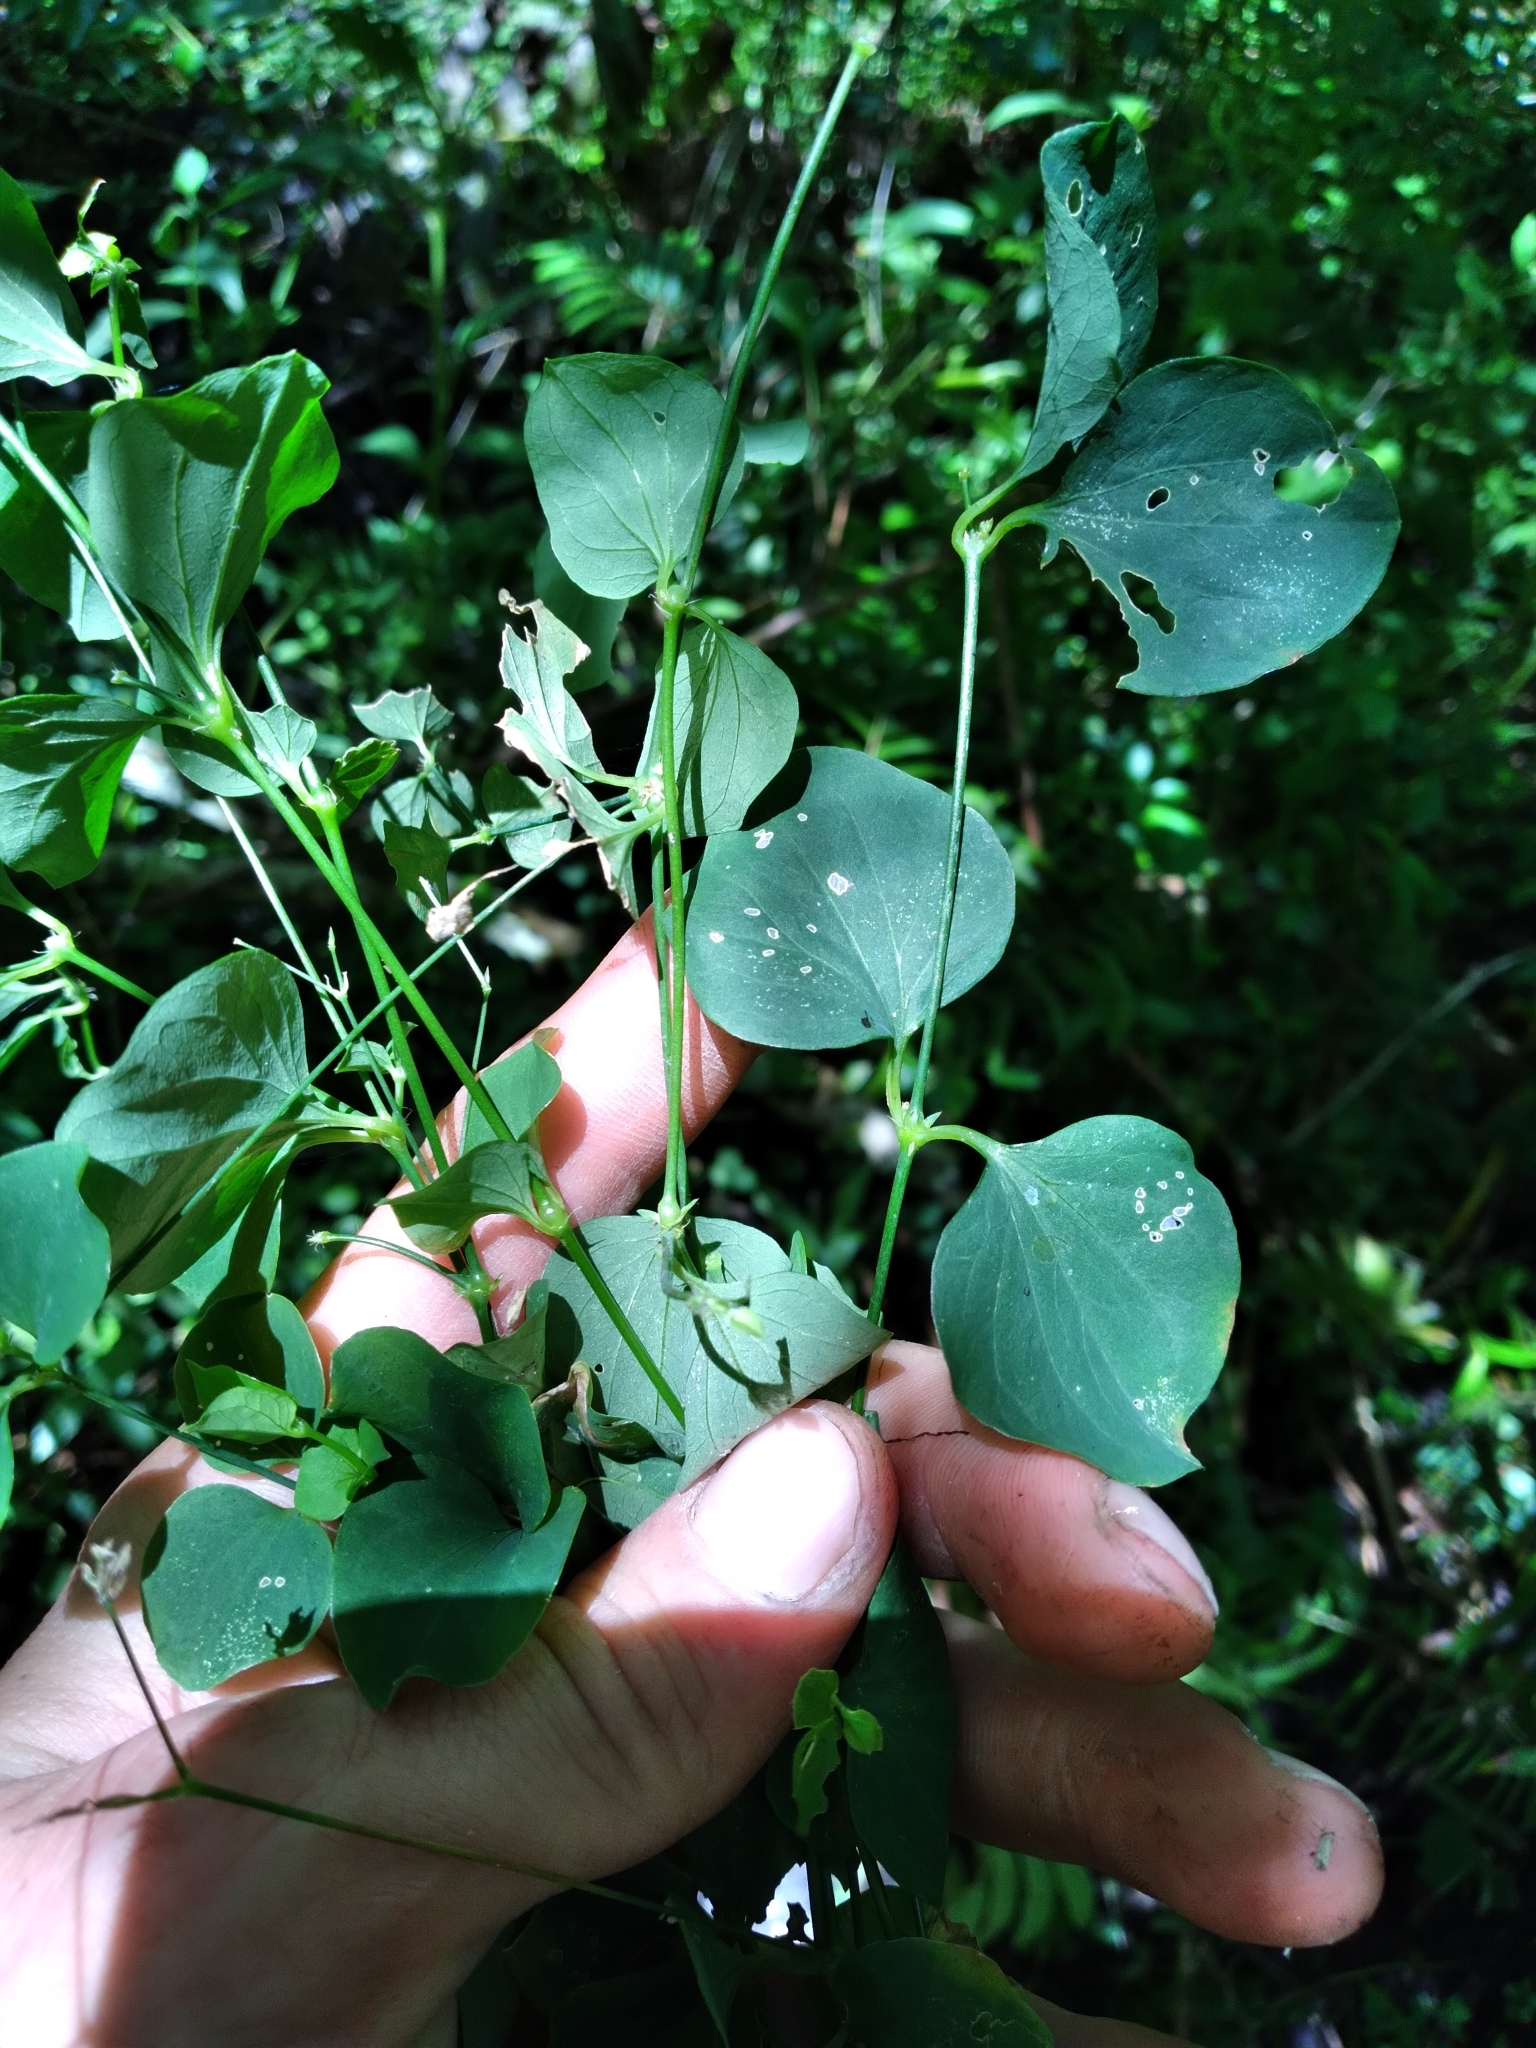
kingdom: Plantae
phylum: Tracheophyta
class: Magnoliopsida
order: Caryophyllales
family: Caryophyllaceae
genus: Drymaria
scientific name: Drymaria cordata
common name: Whitesnow
